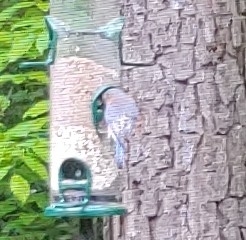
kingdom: Animalia
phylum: Chordata
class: Aves
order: Passeriformes
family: Turdidae
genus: Sialia
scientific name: Sialia sialis
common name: Eastern bluebird
